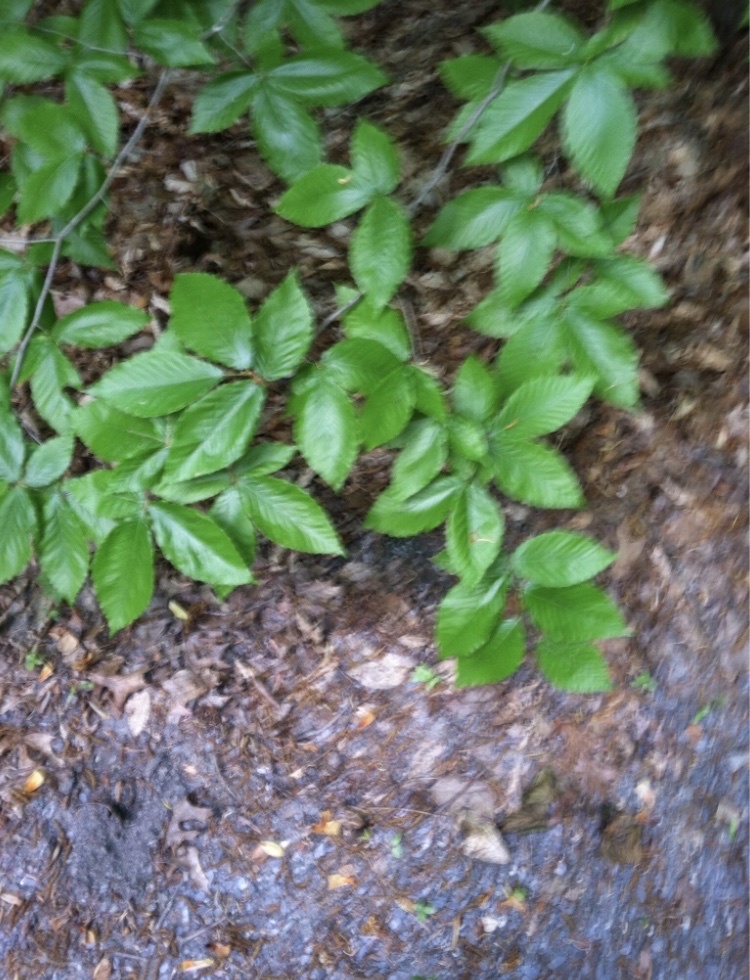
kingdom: Plantae
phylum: Tracheophyta
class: Magnoliopsida
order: Fagales
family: Fagaceae
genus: Fagus
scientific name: Fagus grandifolia
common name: American beech
